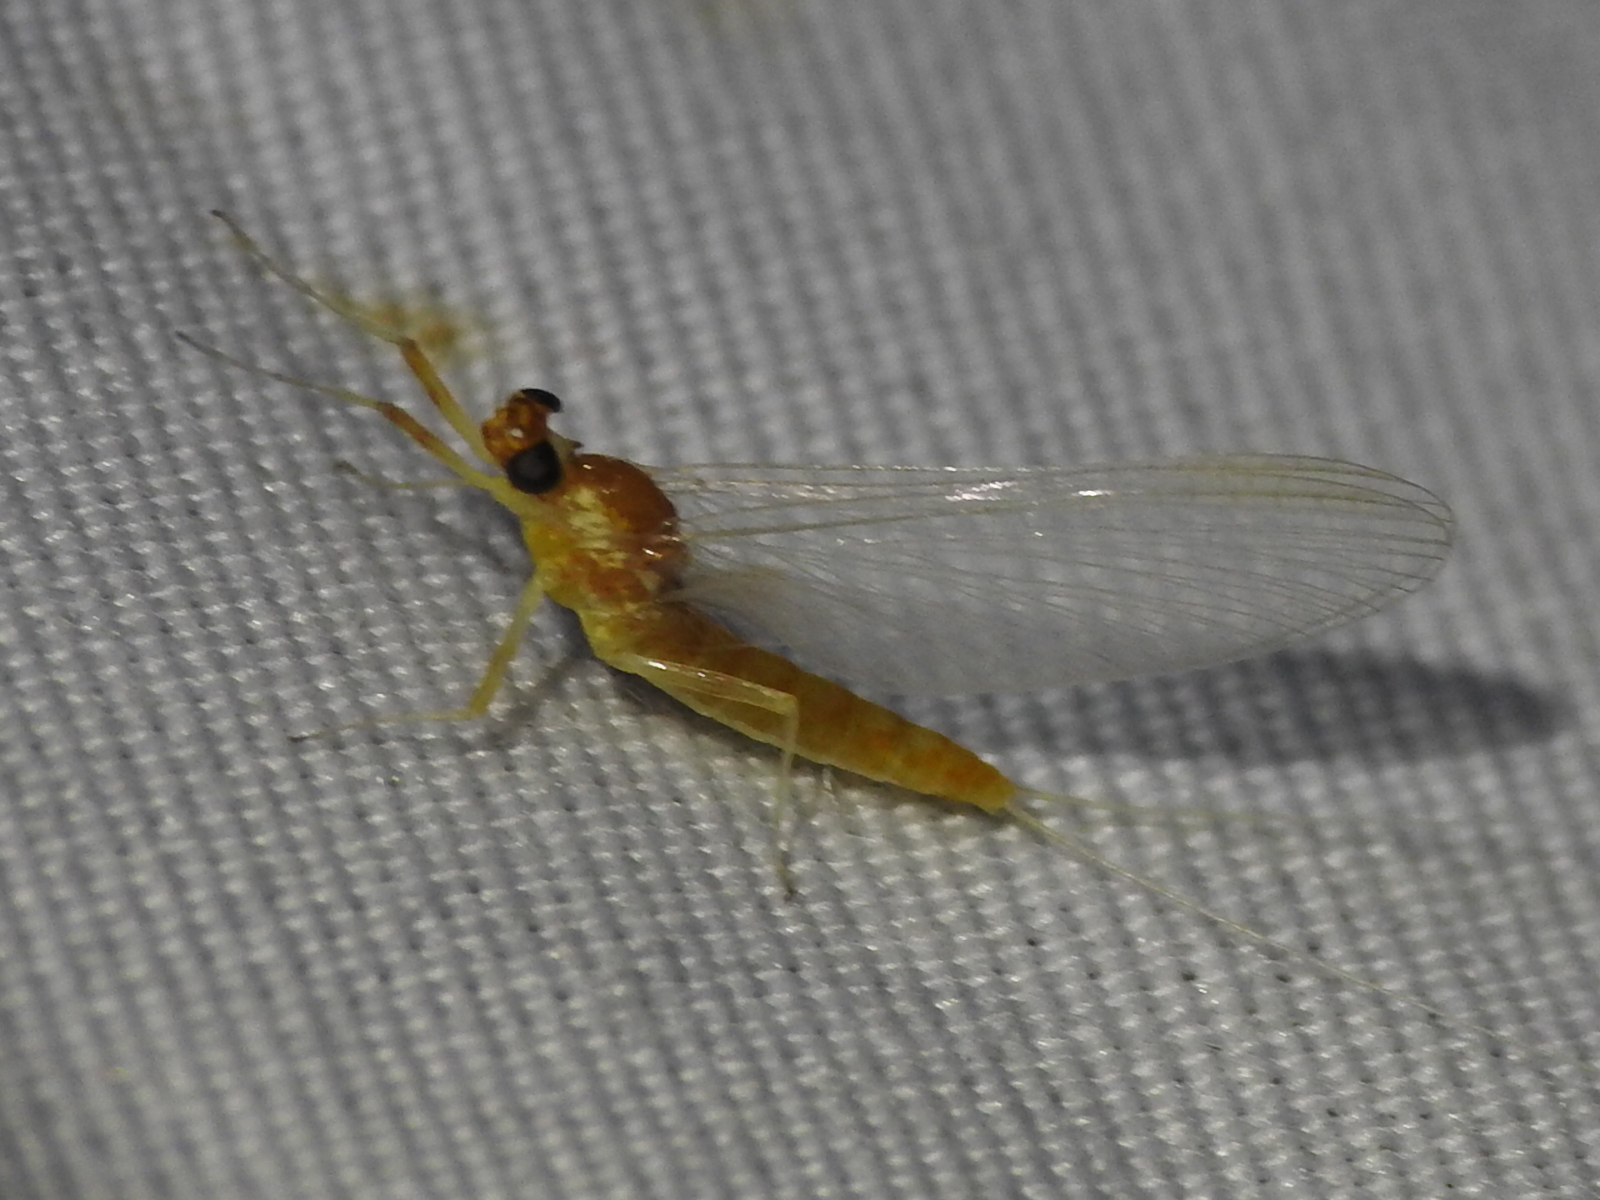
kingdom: Animalia
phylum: Arthropoda
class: Insecta
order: Ephemeroptera
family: Heptageniidae
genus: Nixe
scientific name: Nixe rusticalis
